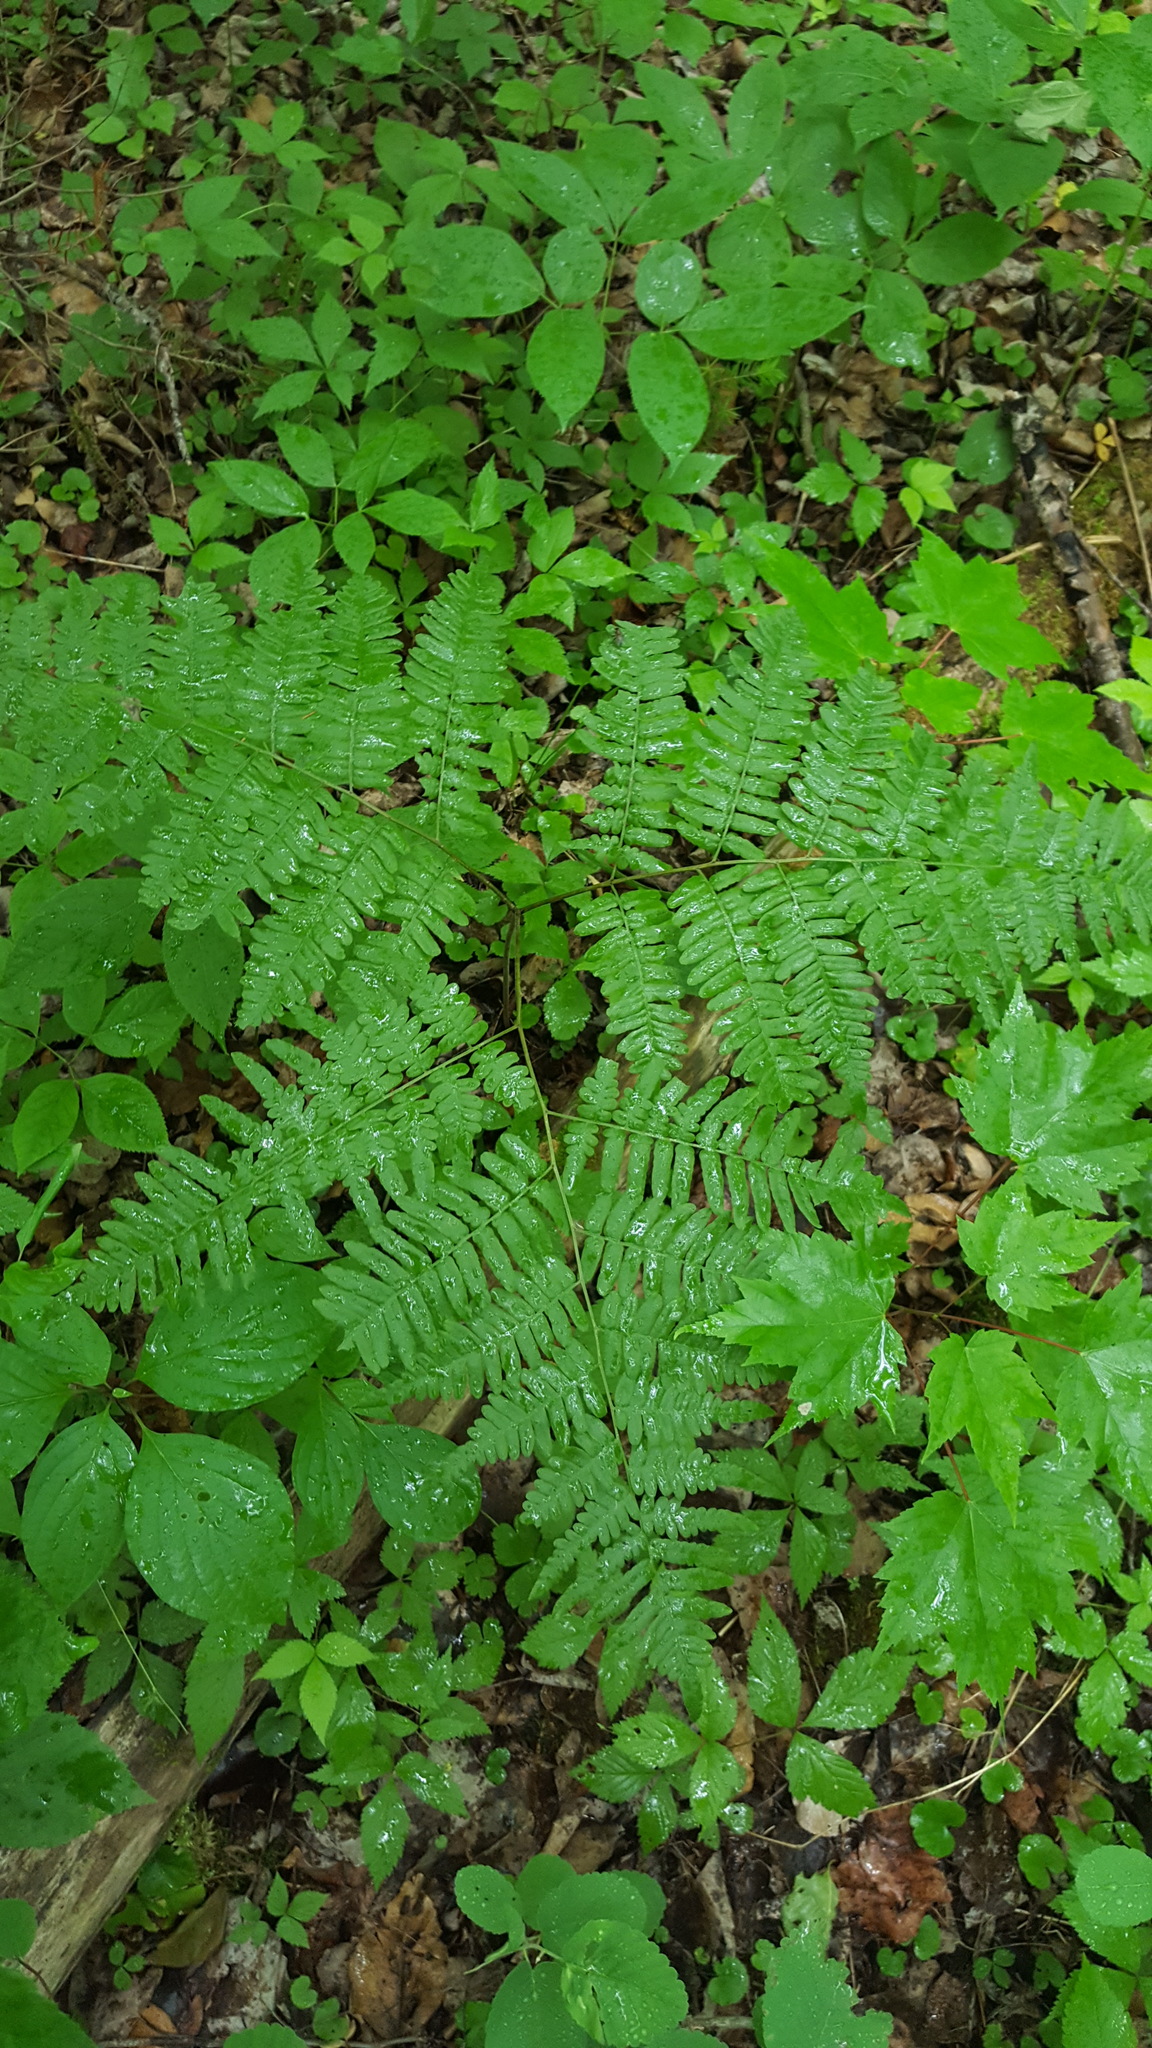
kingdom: Plantae
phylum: Tracheophyta
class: Polypodiopsida
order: Polypodiales
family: Dennstaedtiaceae
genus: Pteridium
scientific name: Pteridium aquilinum
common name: Bracken
